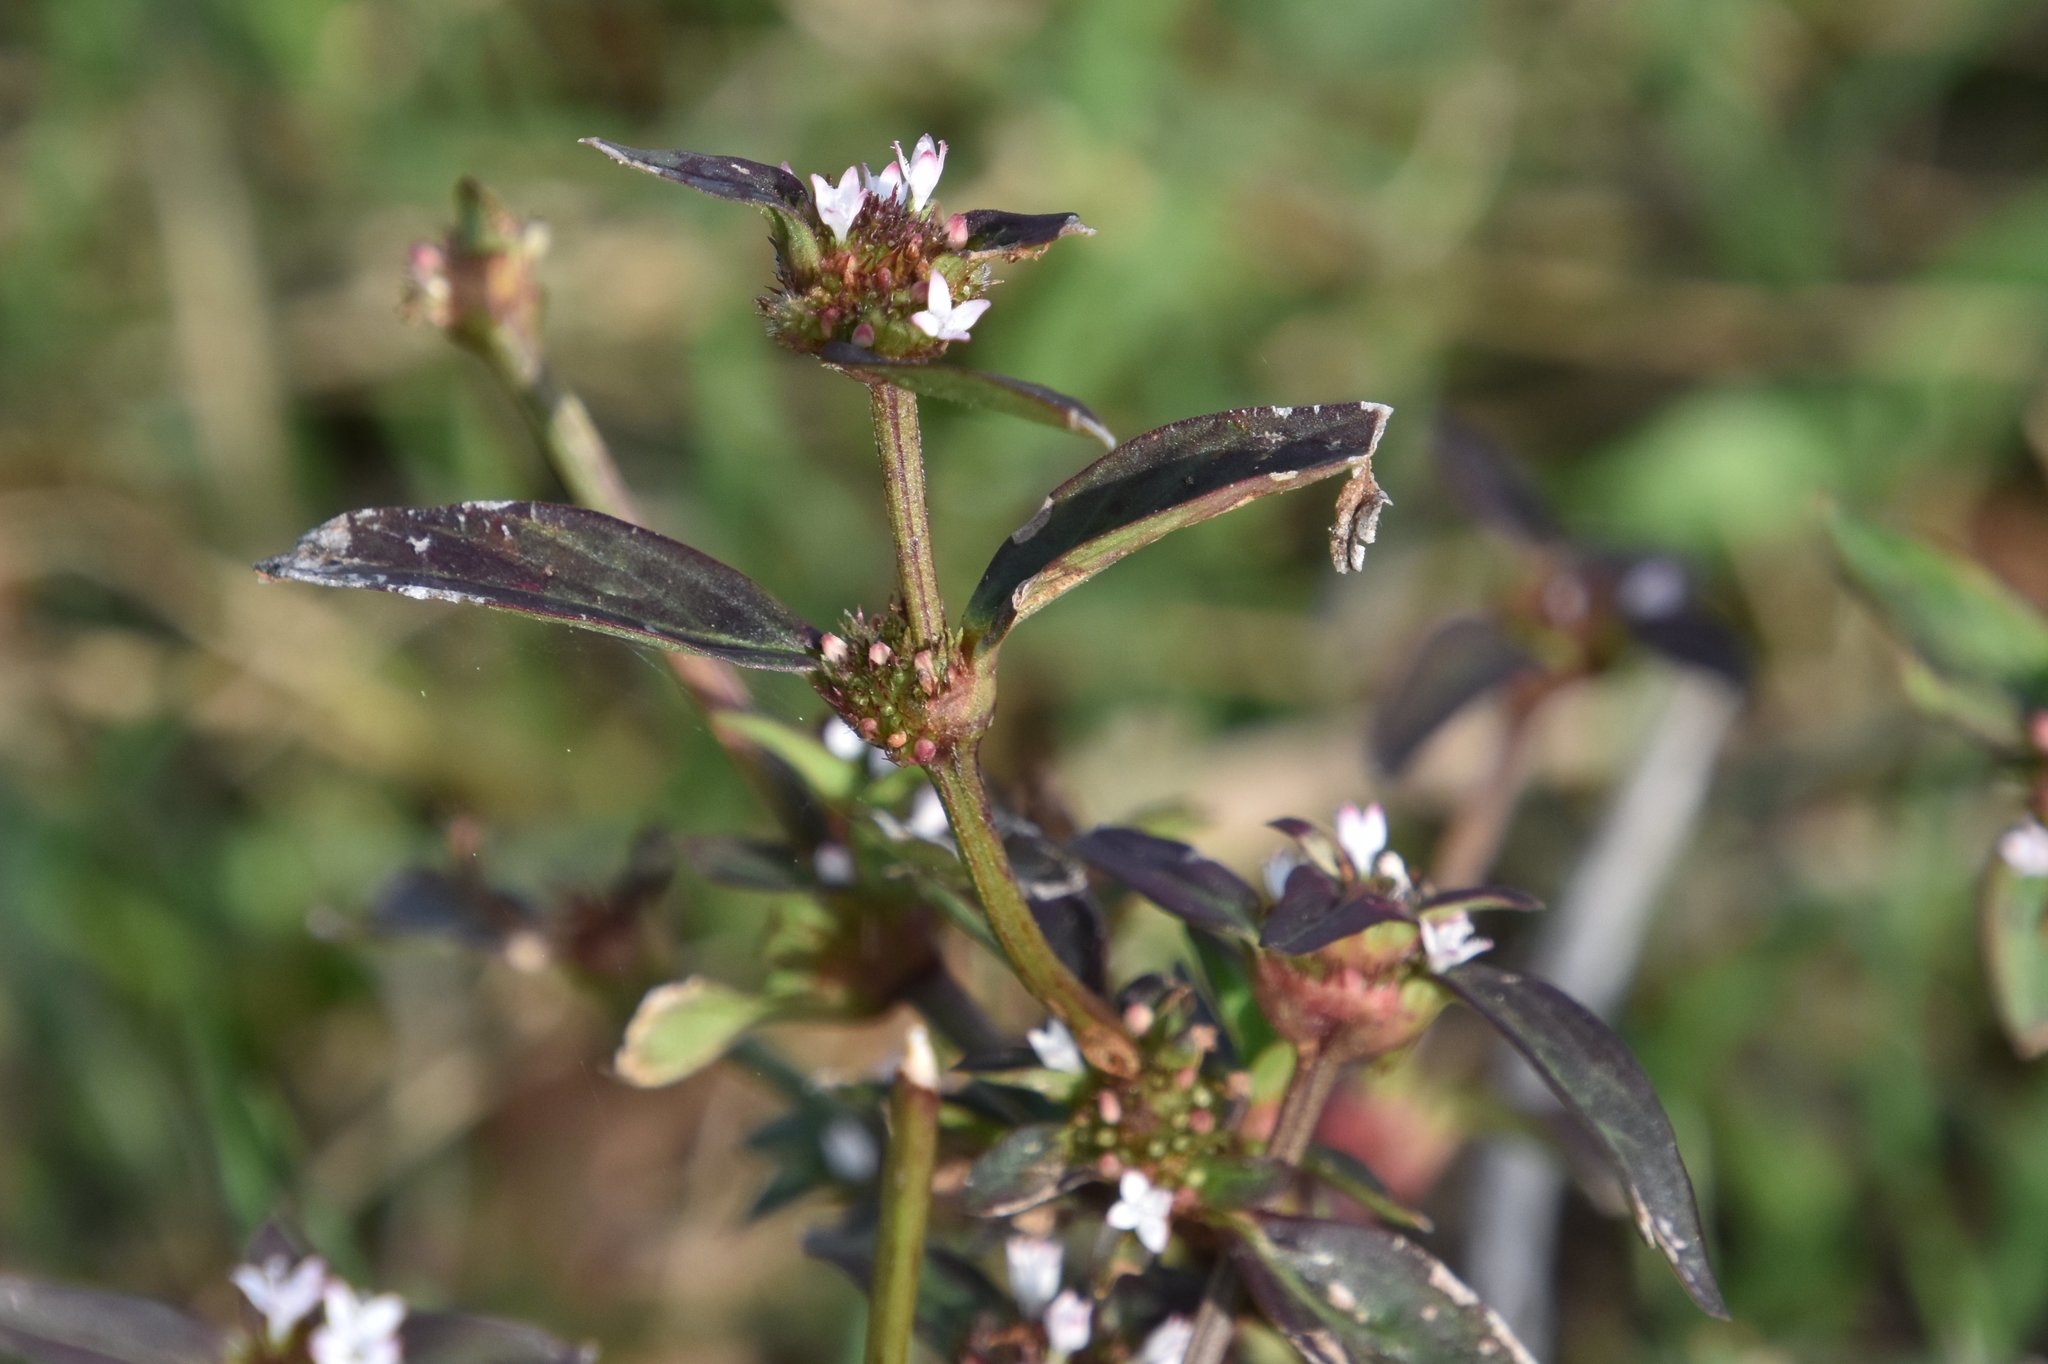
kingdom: Plantae
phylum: Tracheophyta
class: Magnoliopsida
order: Gentianales
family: Rubiaceae
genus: Spermacoce
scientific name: Spermacoce remota
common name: Woodland false buttonweed
